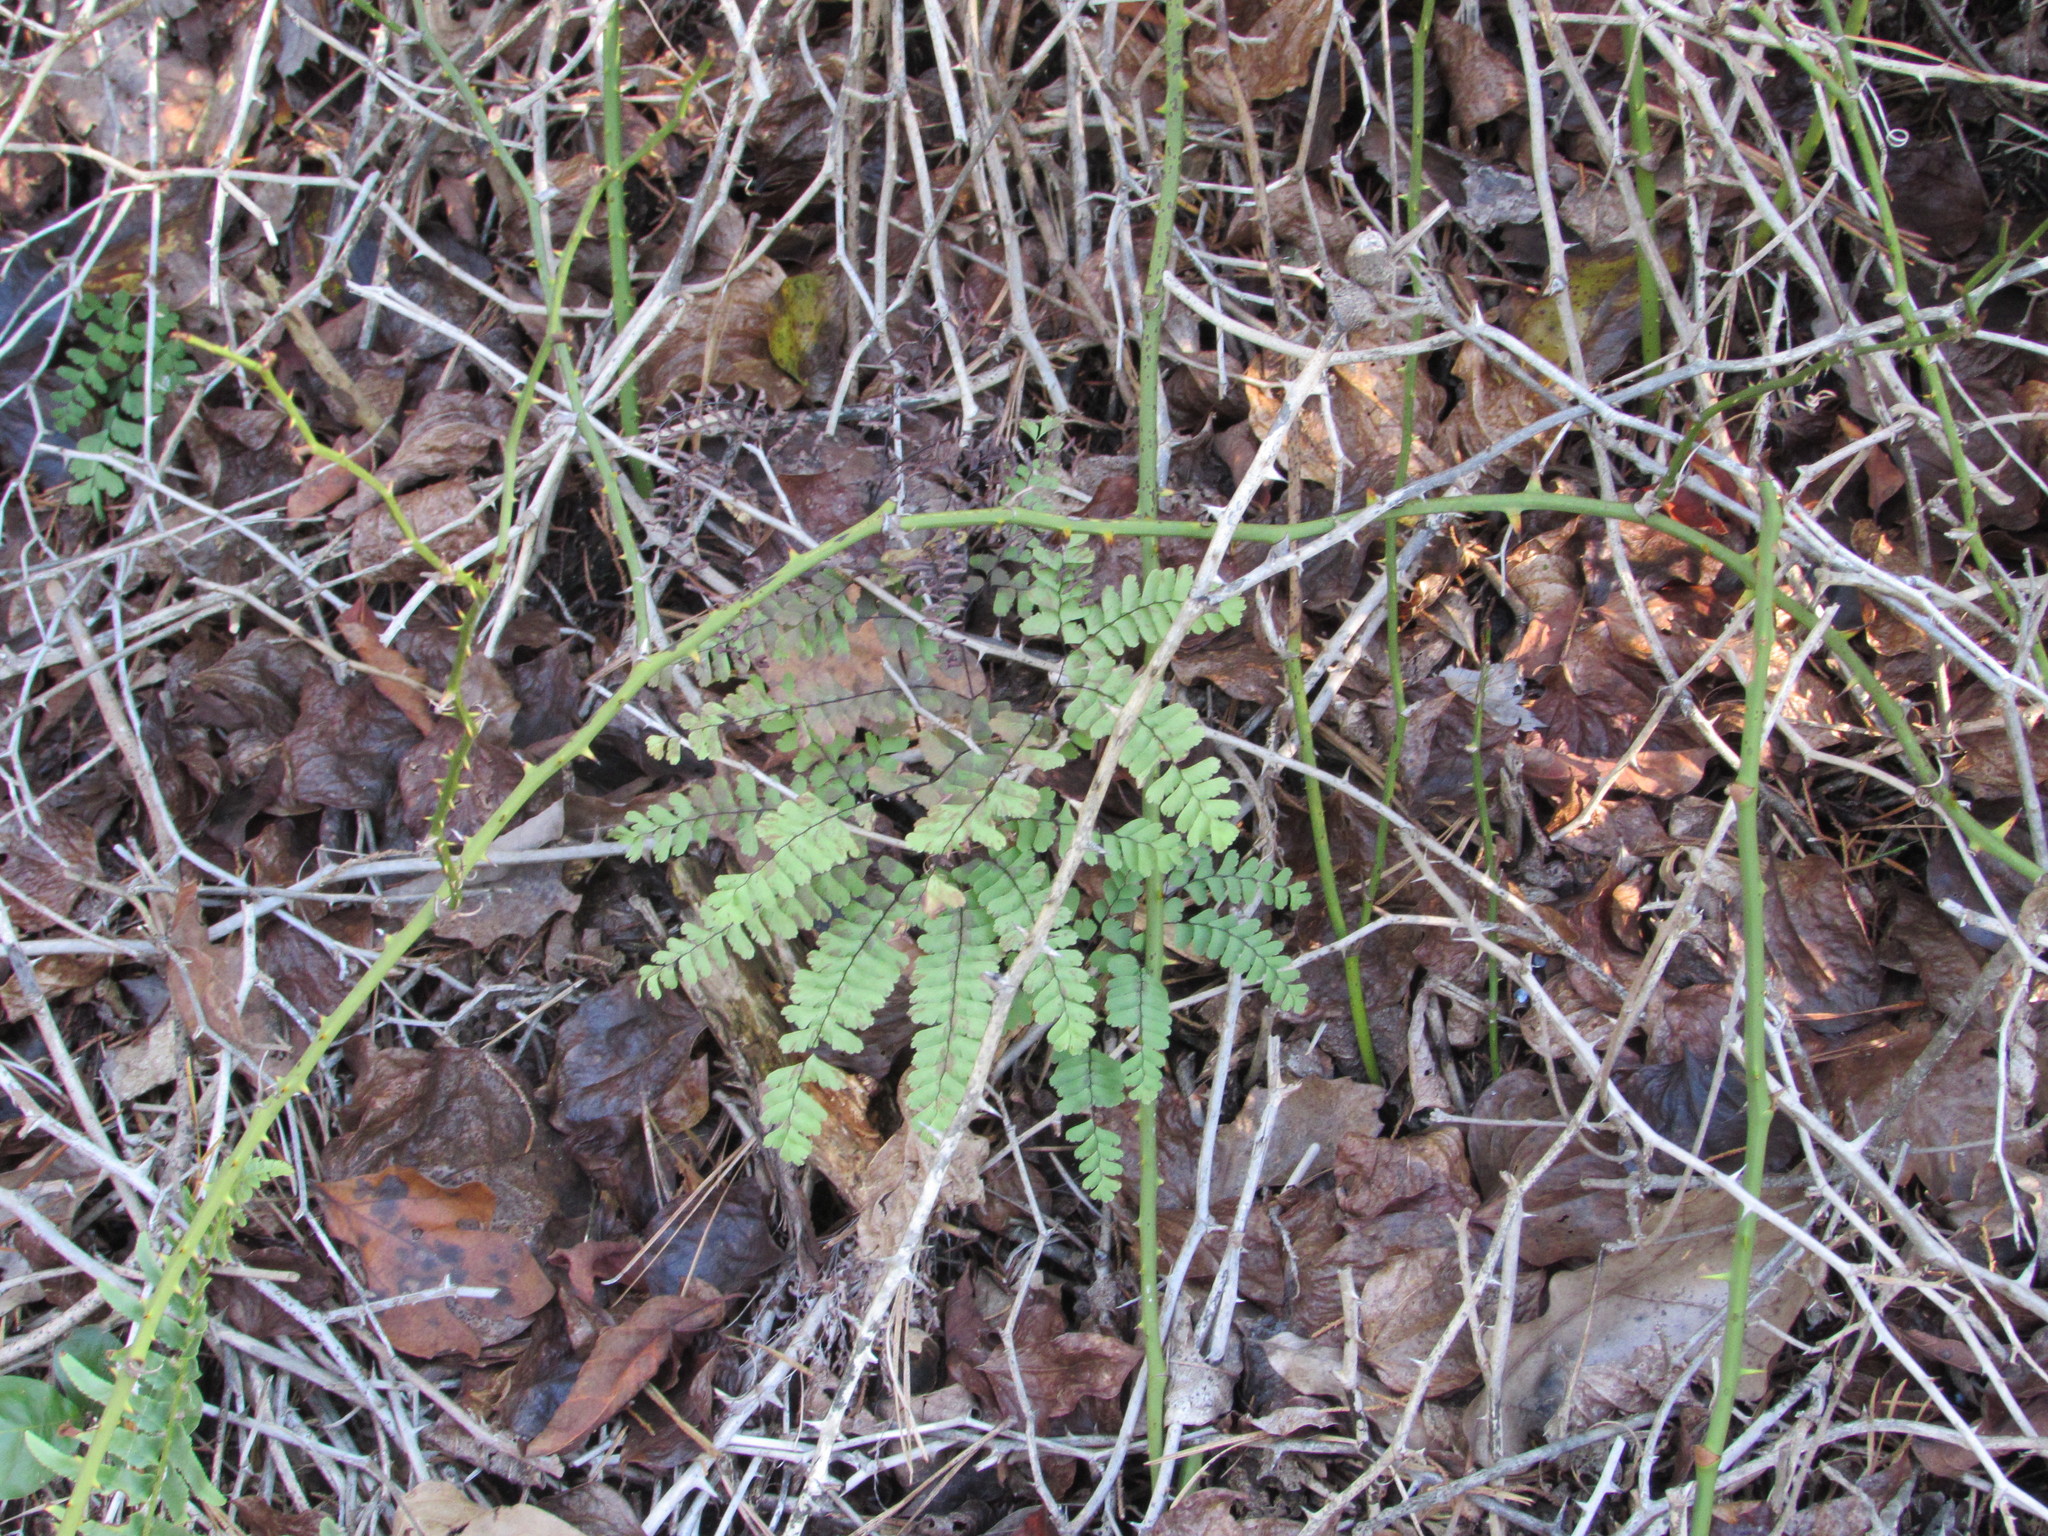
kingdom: Plantae
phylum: Tracheophyta
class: Polypodiopsida
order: Polypodiales
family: Pteridaceae
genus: Adiantum
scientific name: Adiantum pedatum
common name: Five-finger fern
